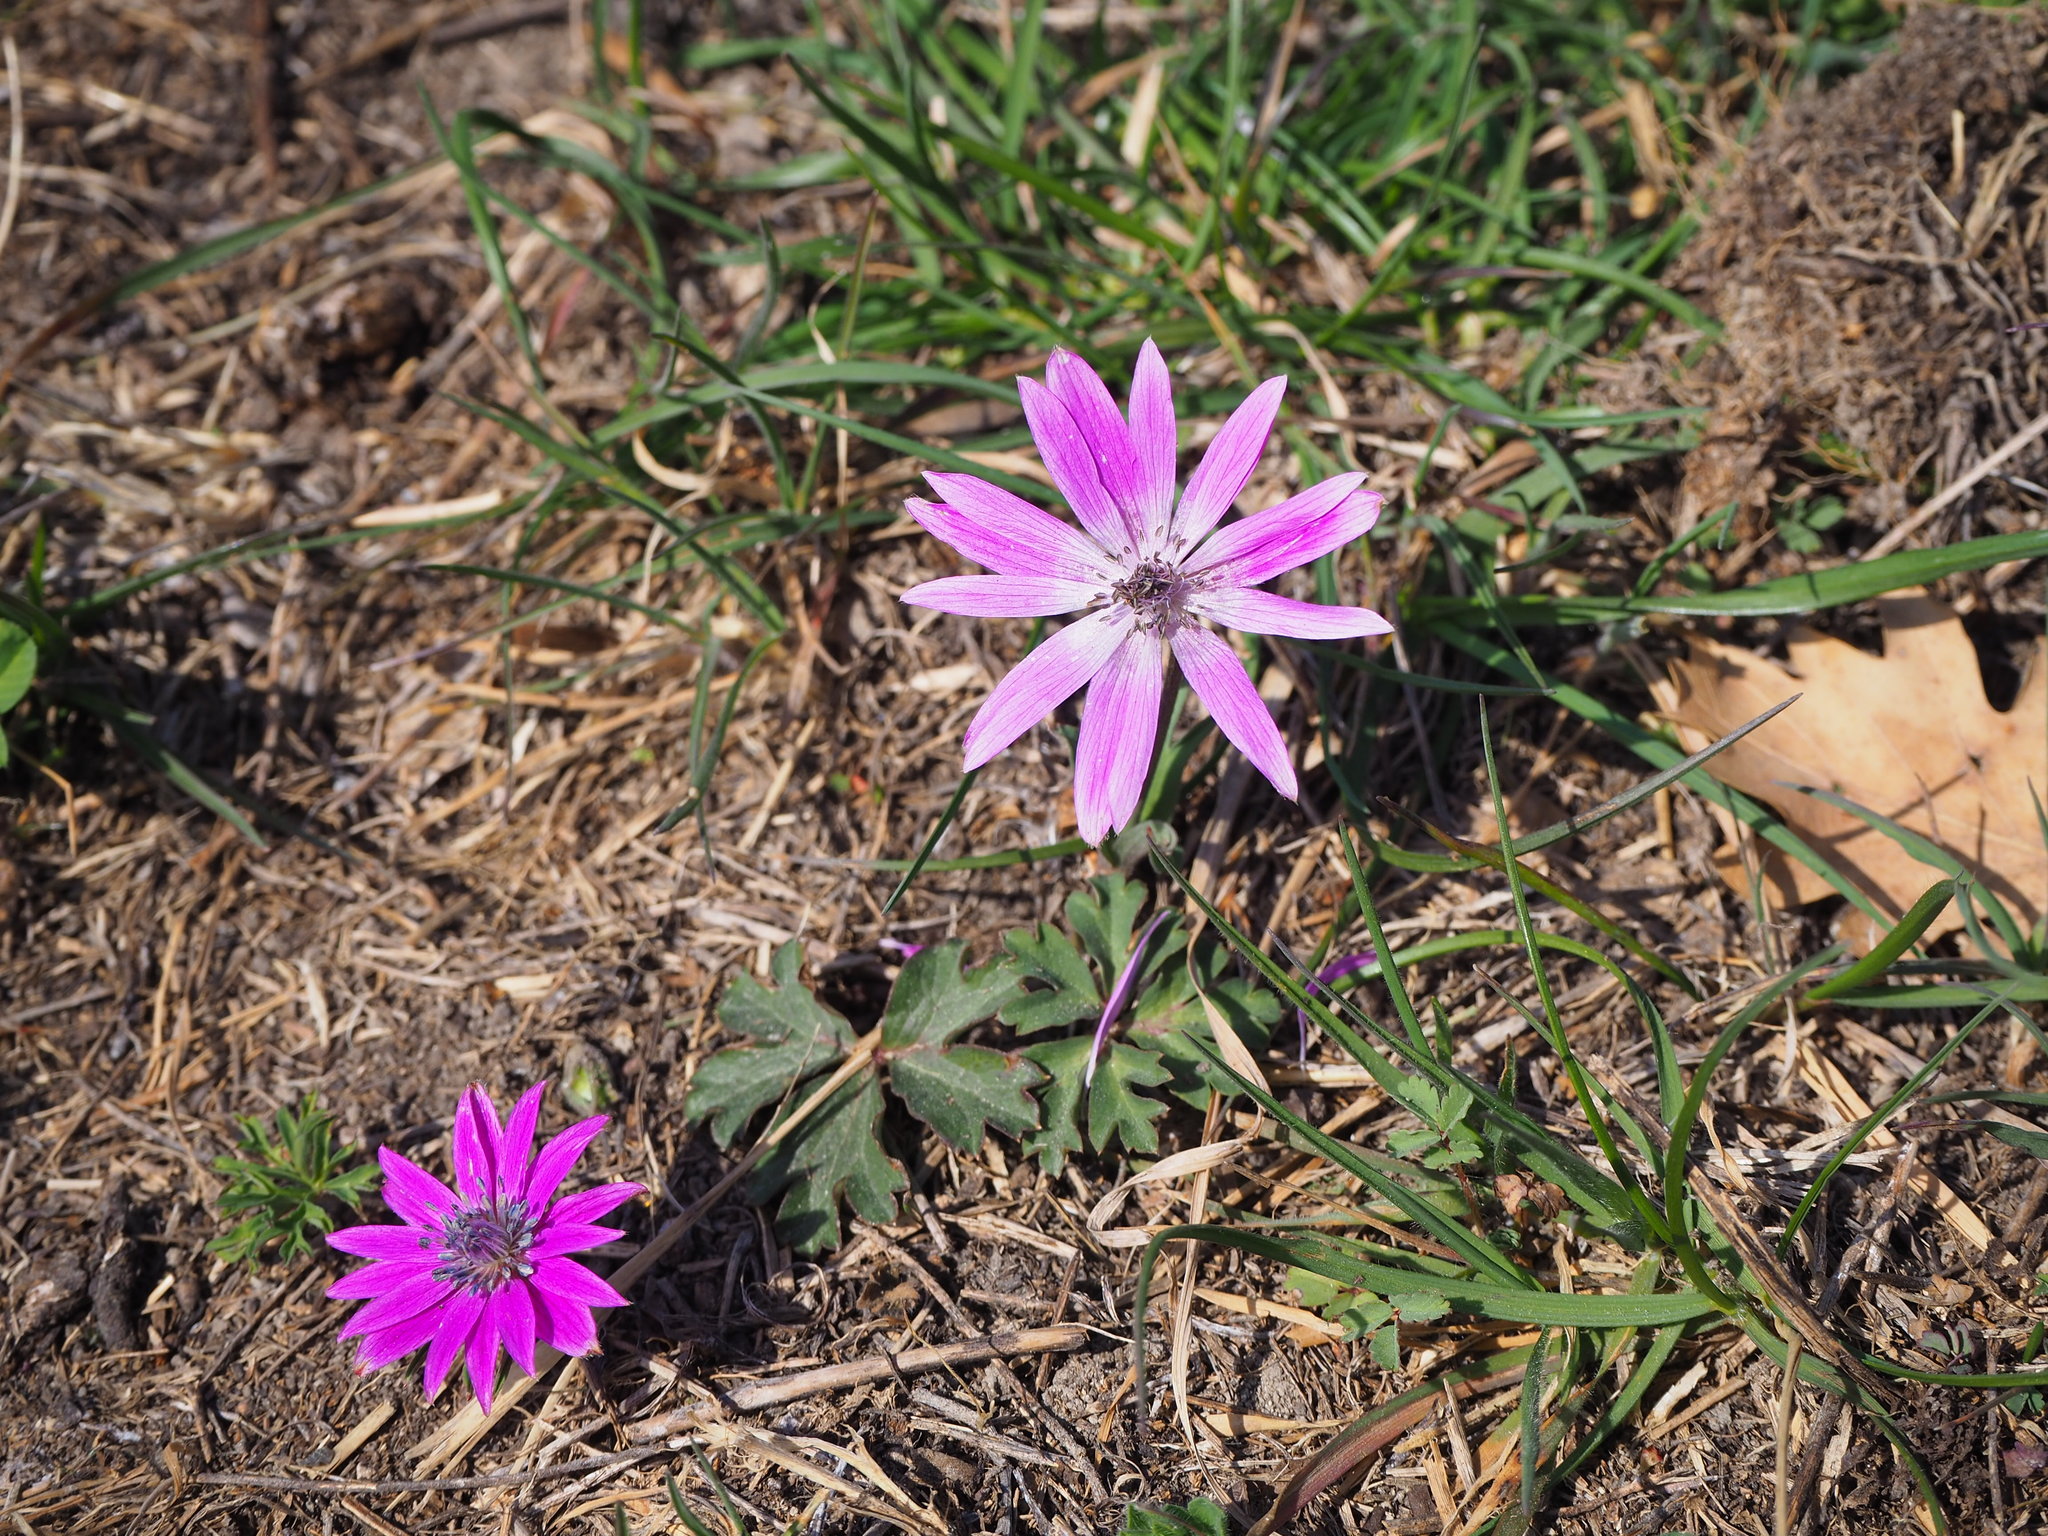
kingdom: Plantae
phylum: Tracheophyta
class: Magnoliopsida
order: Ranunculales
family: Ranunculaceae
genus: Anemone
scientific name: Anemone hortensis
